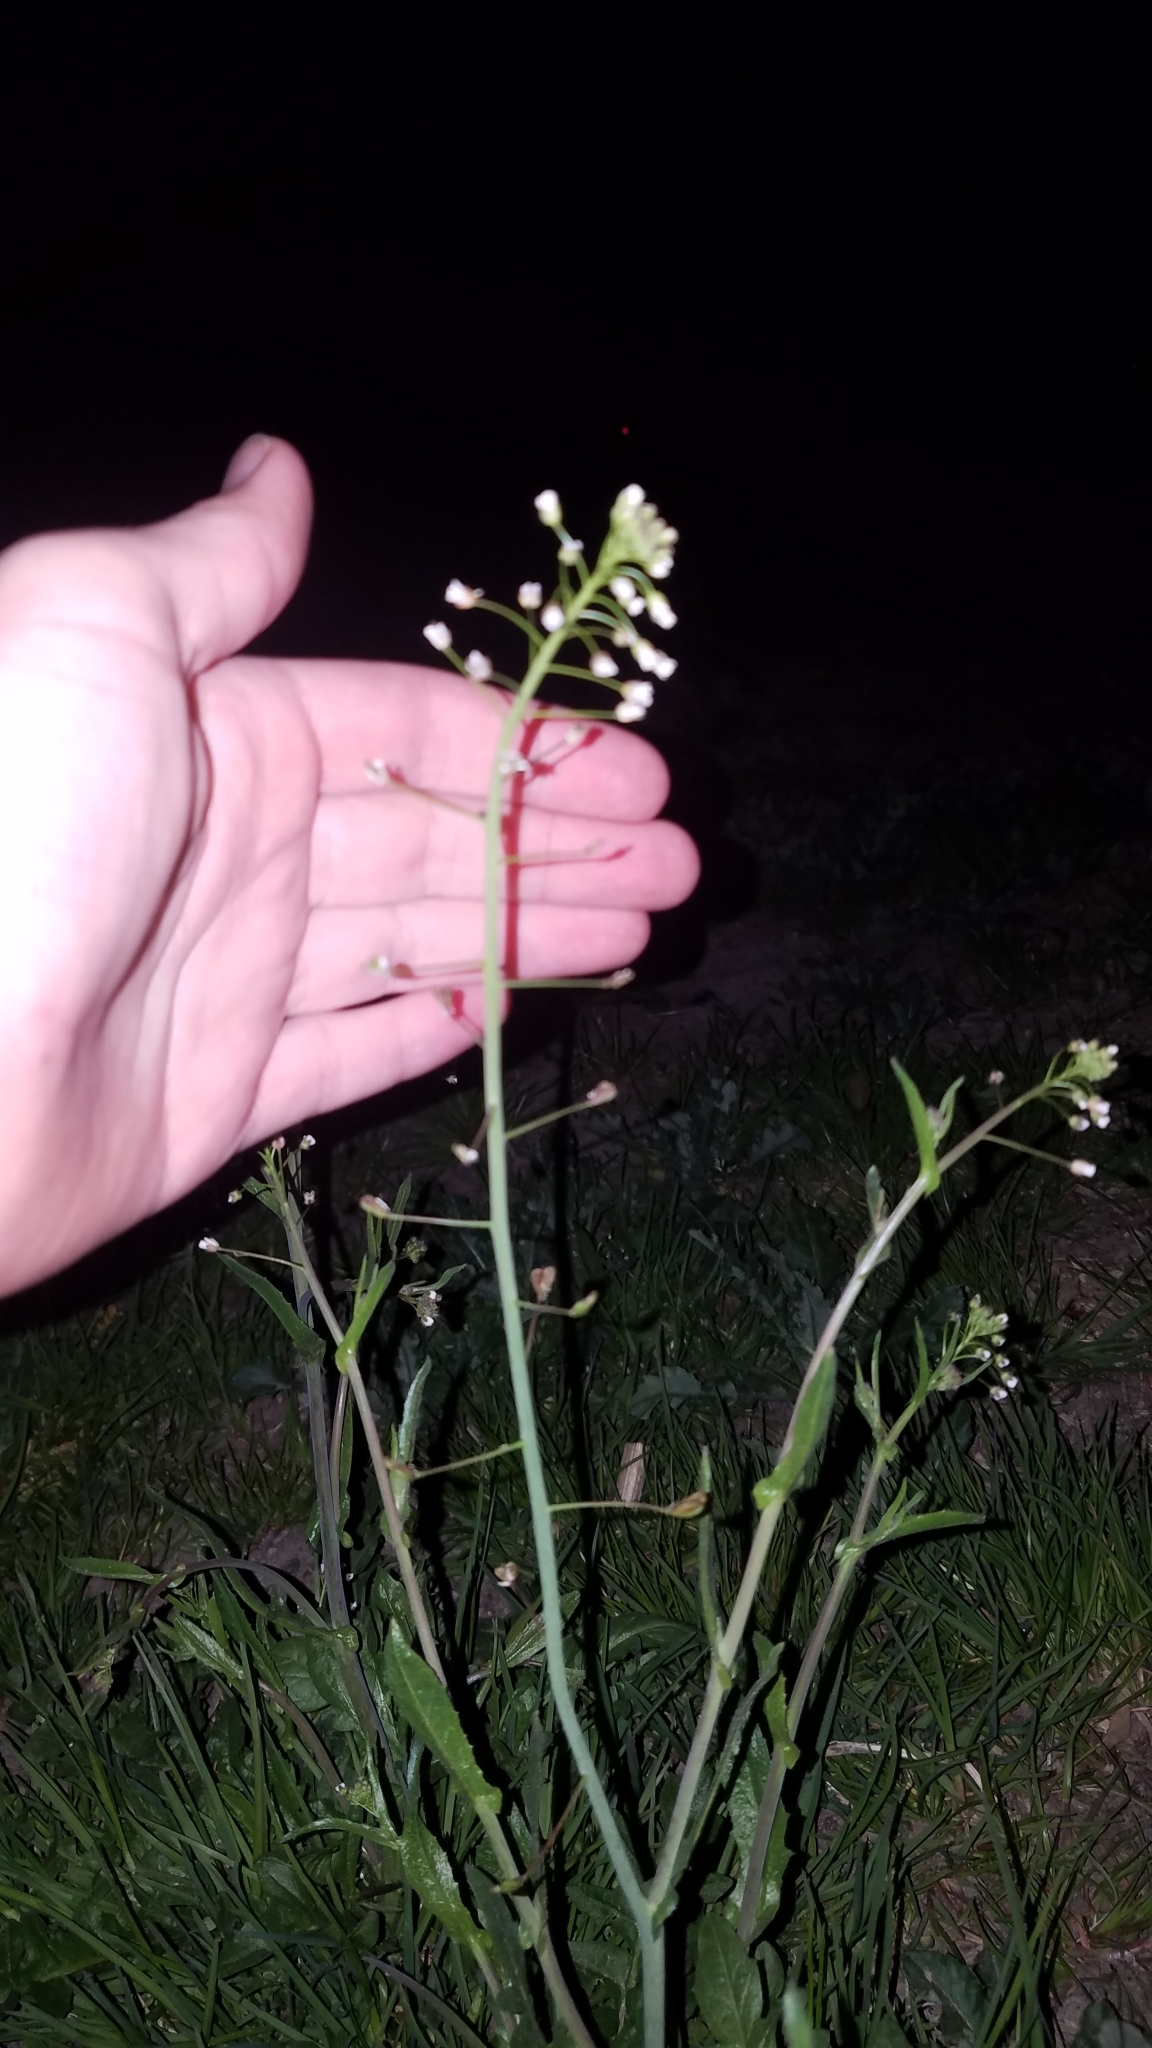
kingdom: Plantae
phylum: Tracheophyta
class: Magnoliopsida
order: Brassicales
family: Brassicaceae
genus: Capsella
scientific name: Capsella bursa-pastoris
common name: Shepherd's purse
